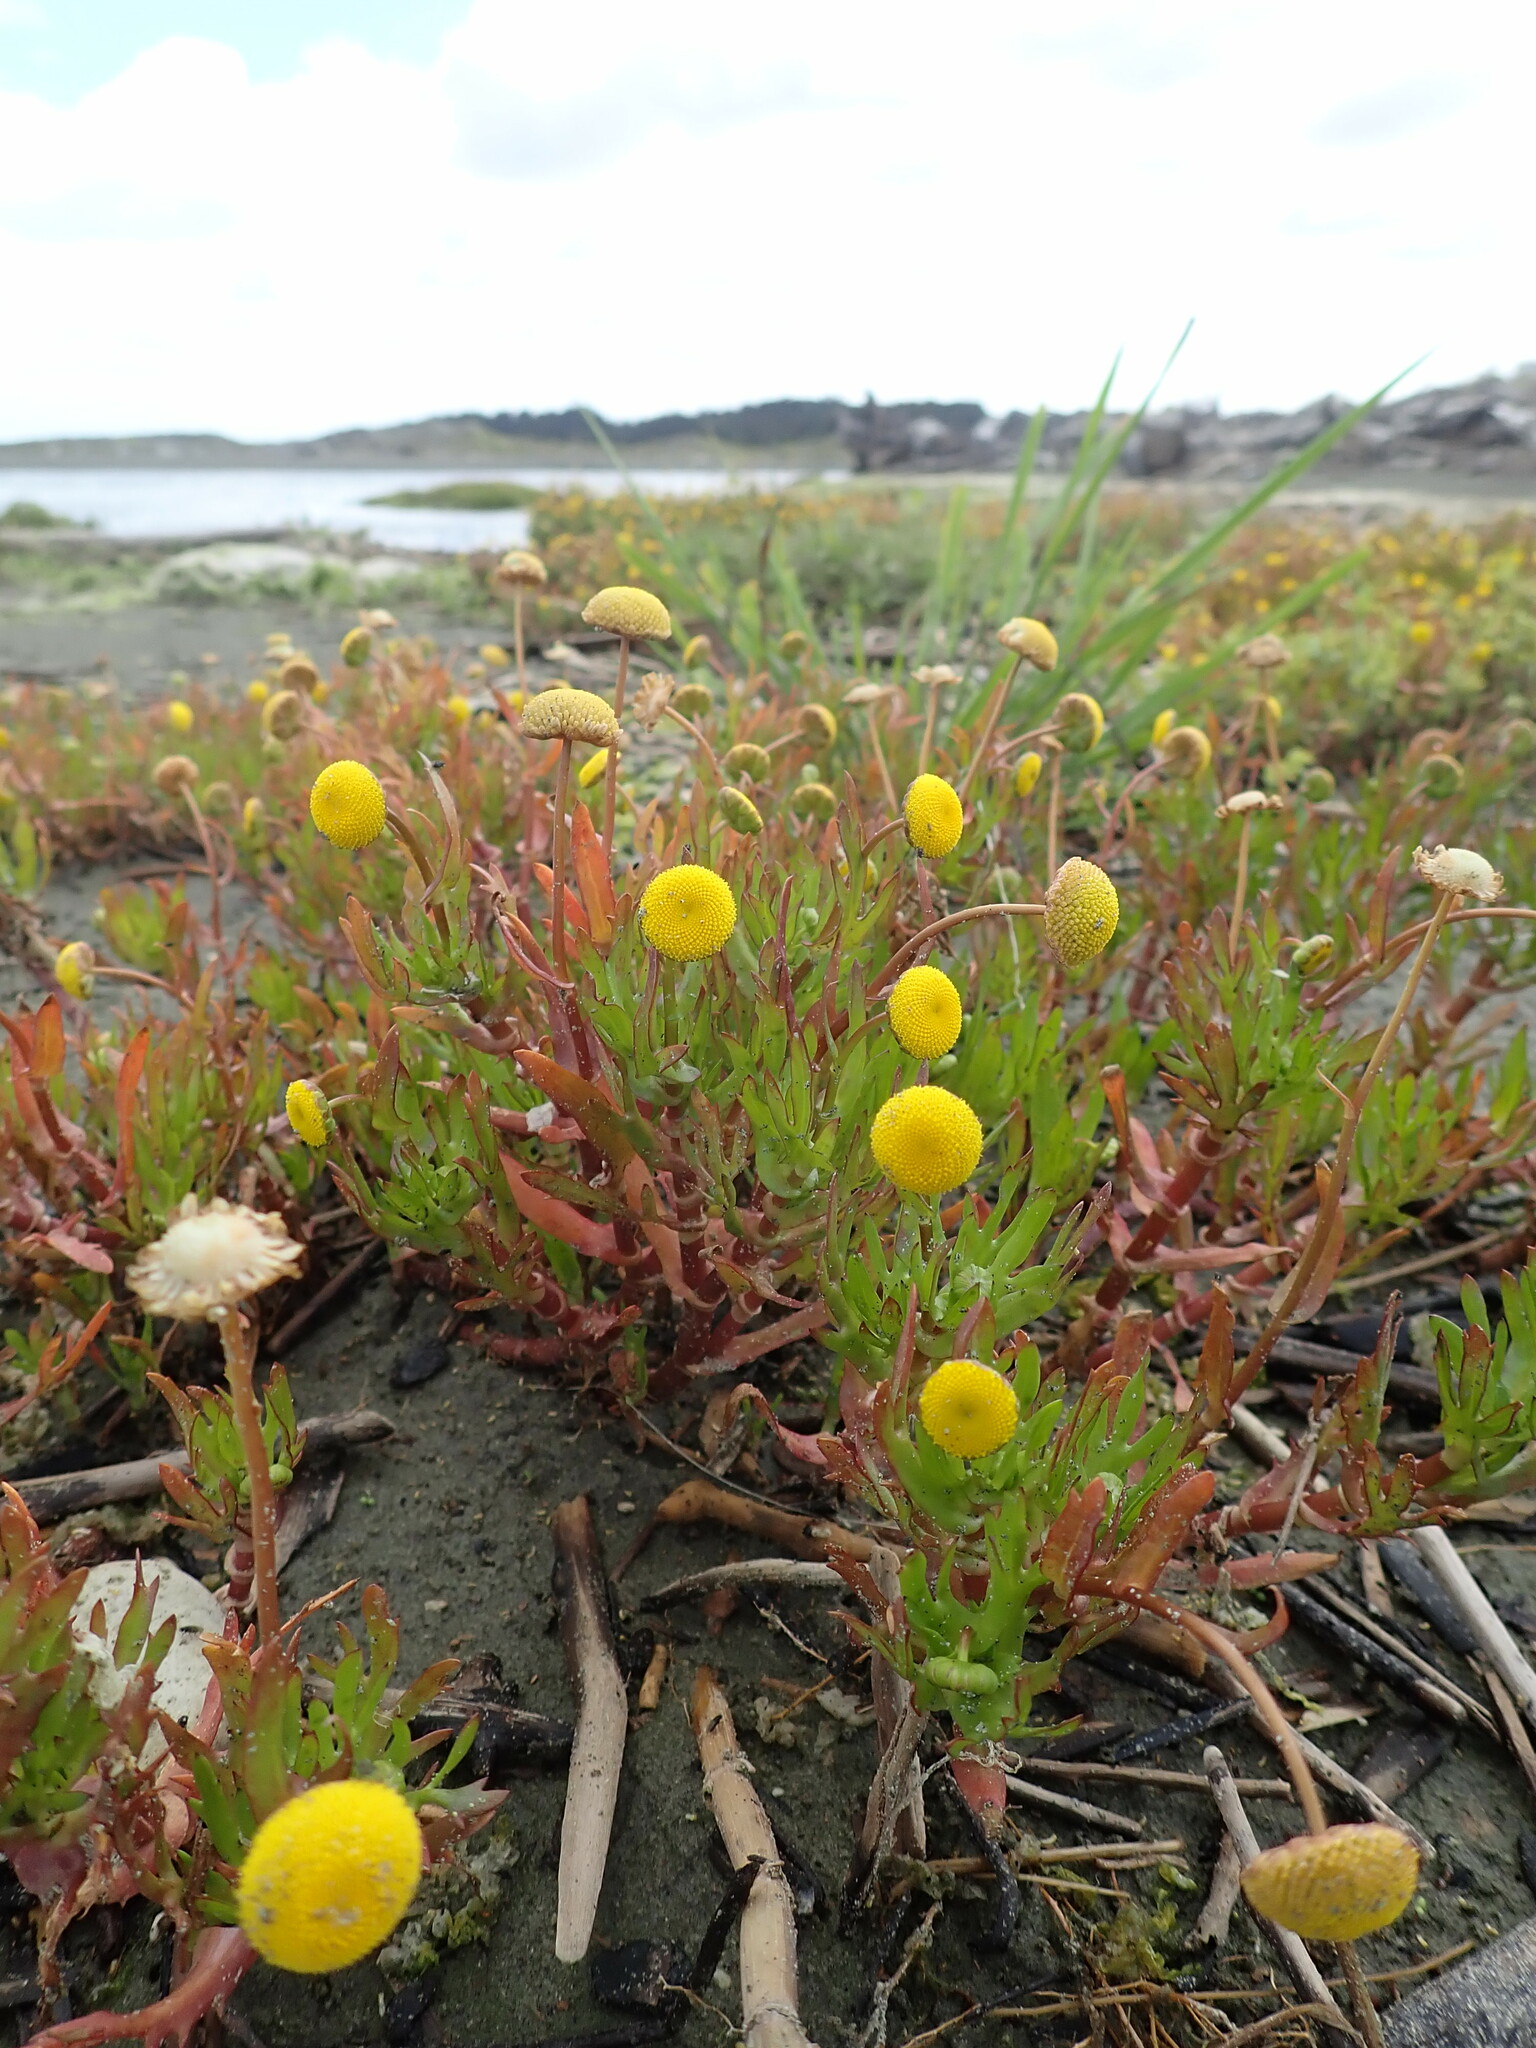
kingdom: Plantae
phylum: Tracheophyta
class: Magnoliopsida
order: Asterales
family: Asteraceae
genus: Cotula
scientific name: Cotula coronopifolia
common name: Buttonweed
